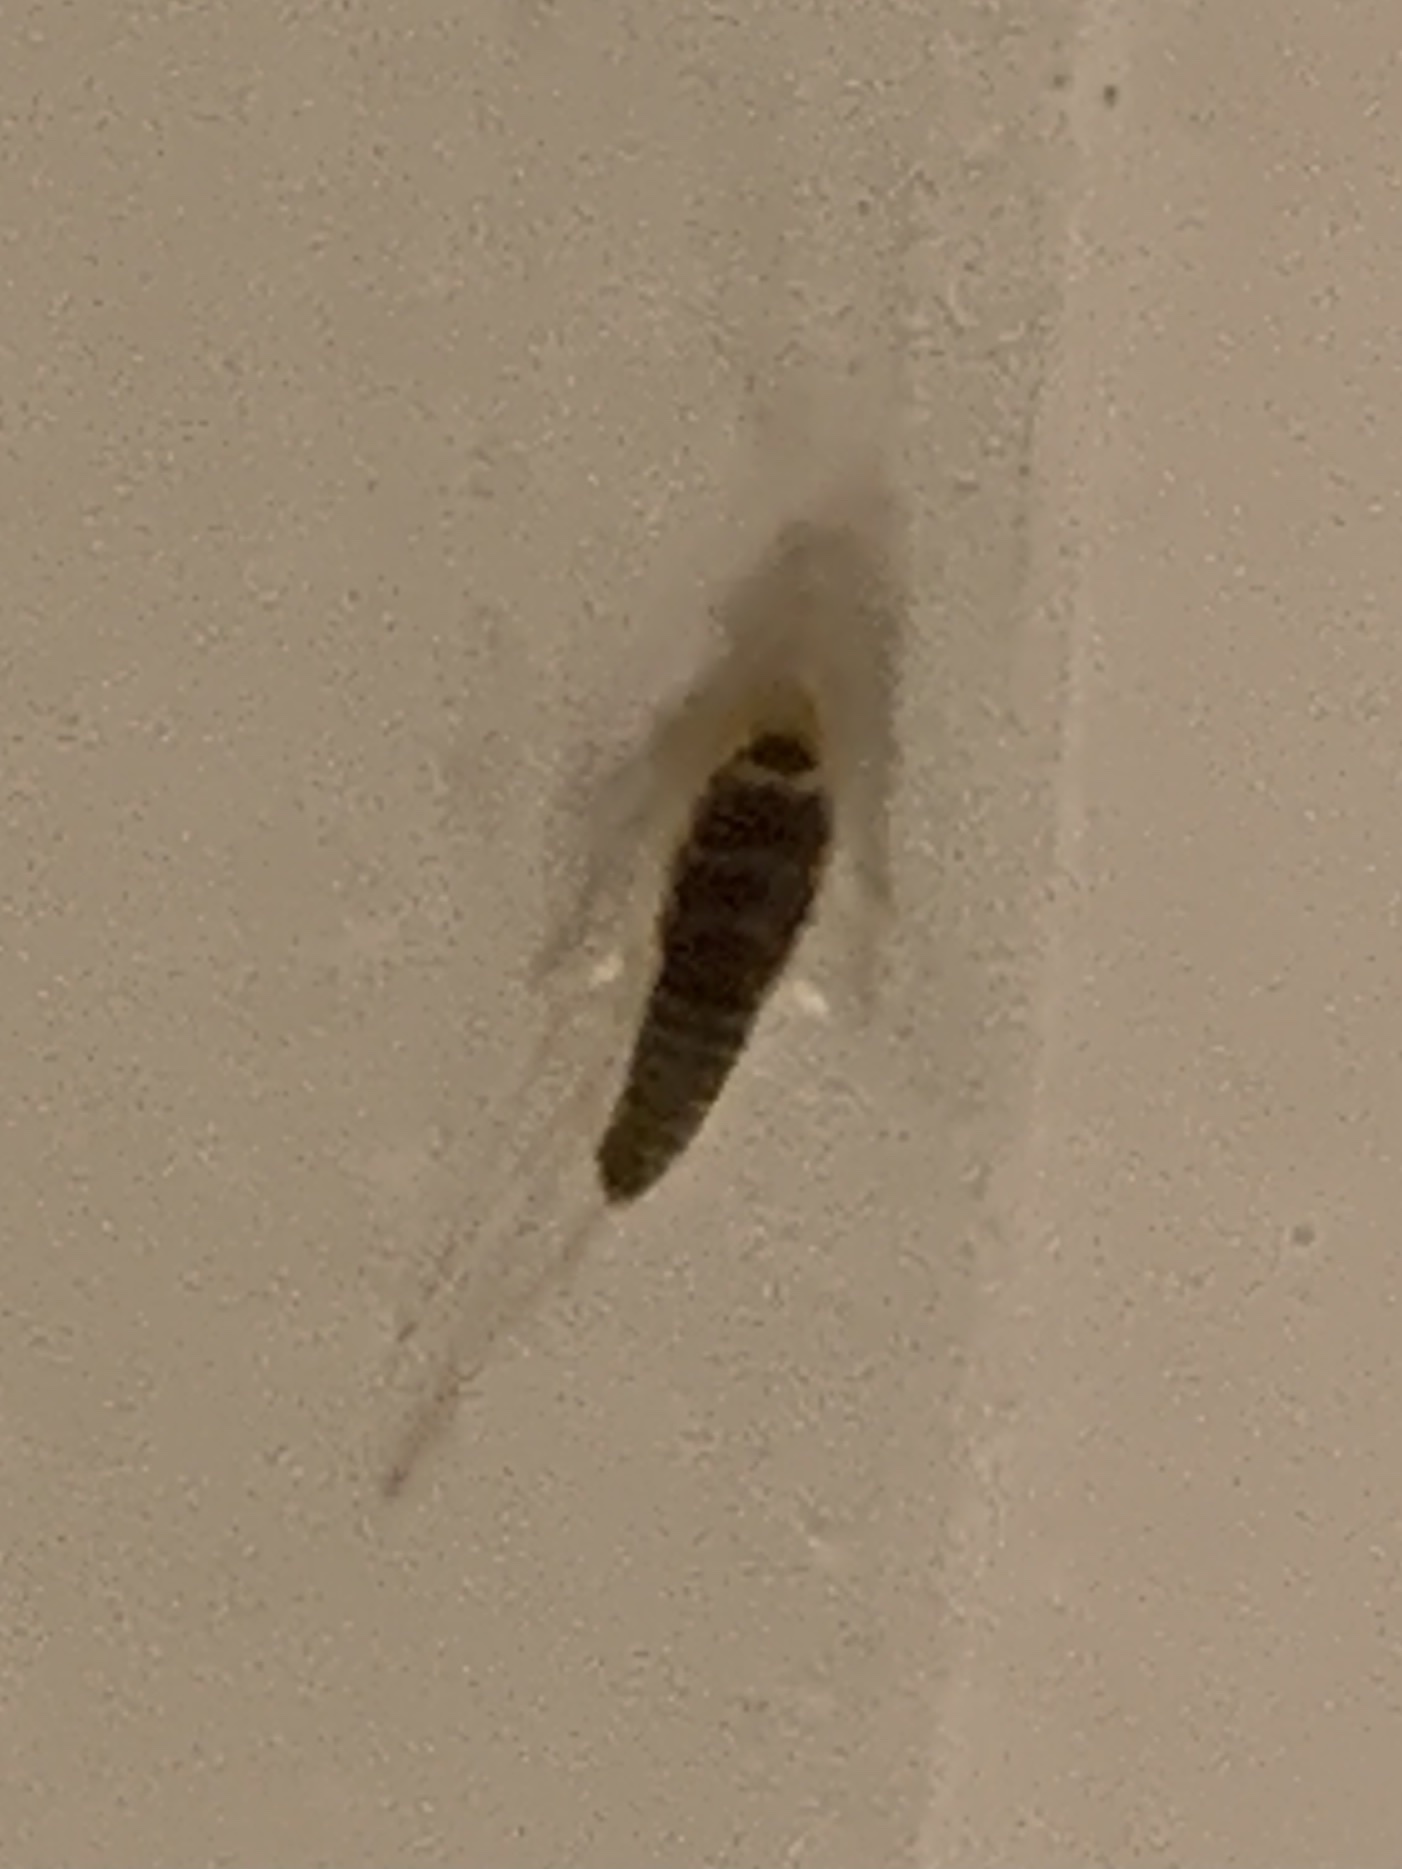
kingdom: Animalia
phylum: Arthropoda
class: Insecta
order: Zygentoma
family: Lepismatidae
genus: Ctenolepisma
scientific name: Ctenolepisma longicaudatum
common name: Silverfish
